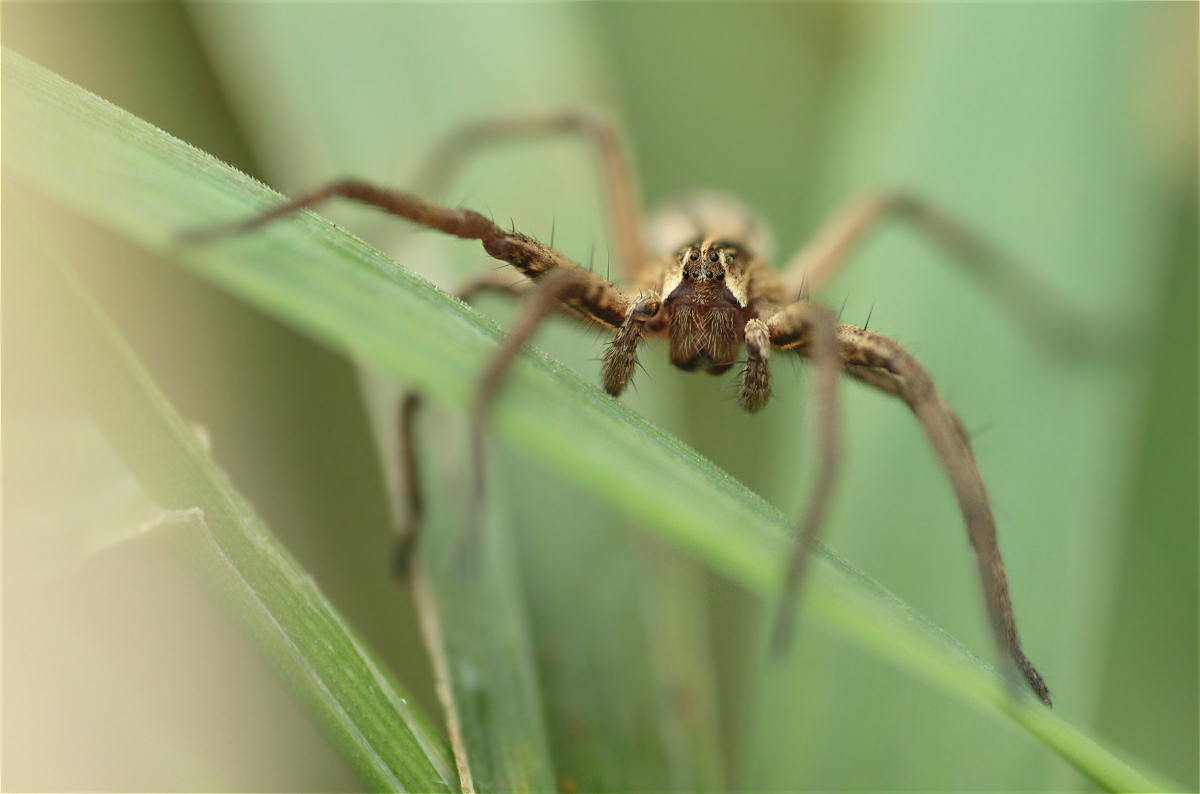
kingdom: Animalia
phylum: Arthropoda
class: Arachnida
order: Araneae
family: Pisauridae
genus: Pisaura
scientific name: Pisaura mirabilis
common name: Tent spider
